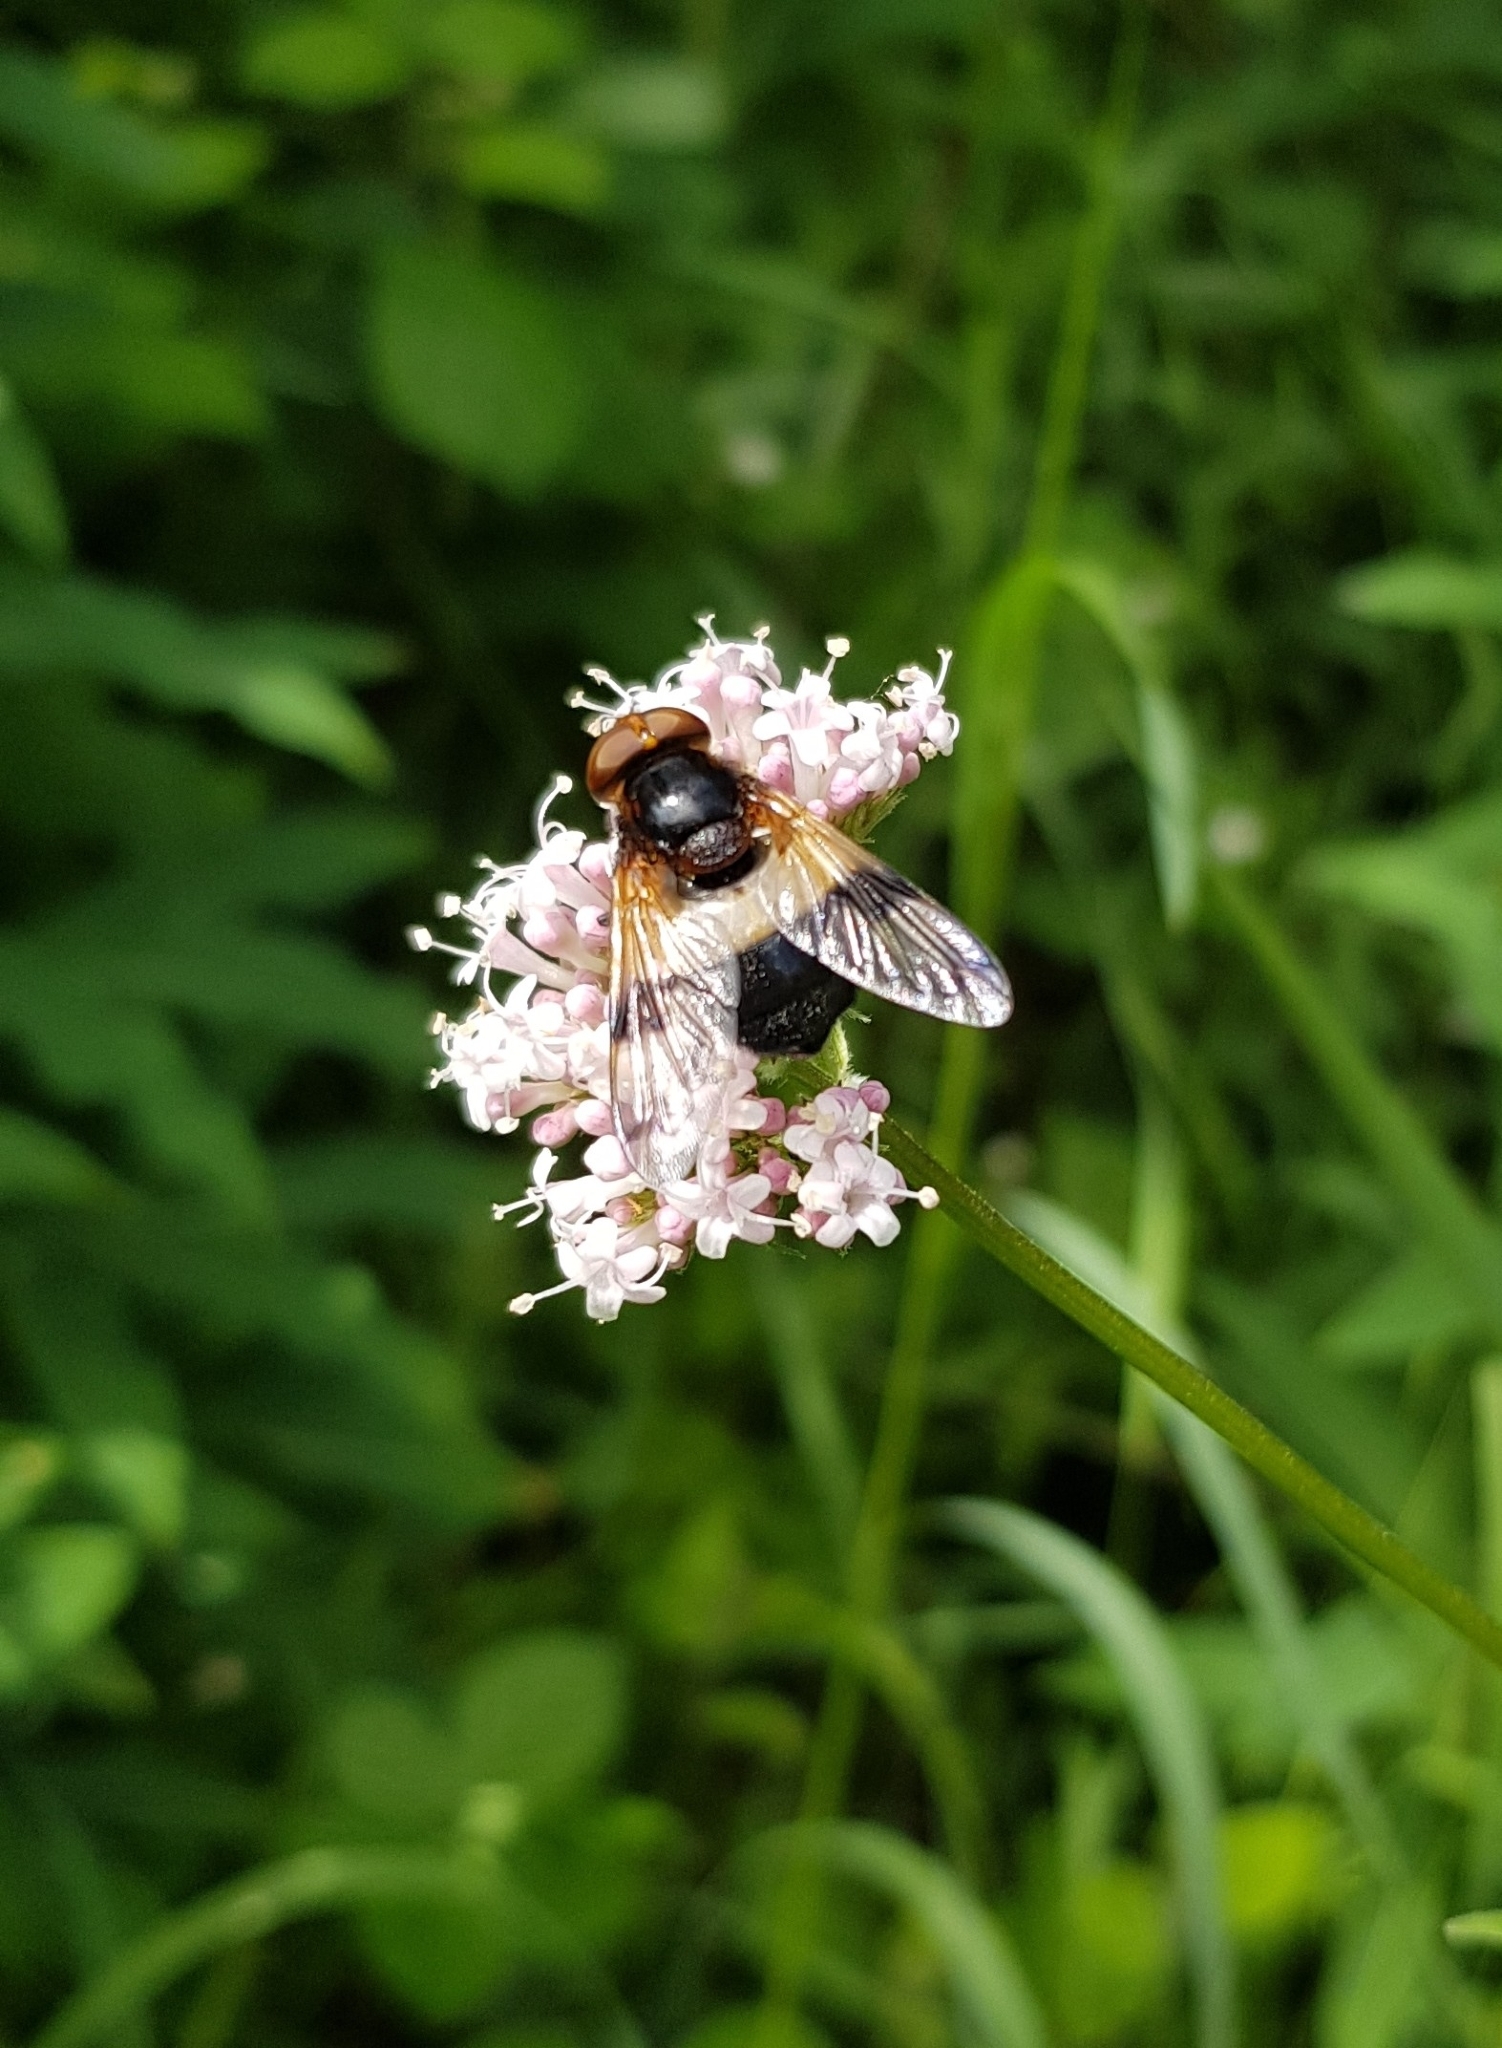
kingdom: Animalia
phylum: Arthropoda
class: Insecta
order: Diptera
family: Syrphidae
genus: Volucella
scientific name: Volucella pellucens
